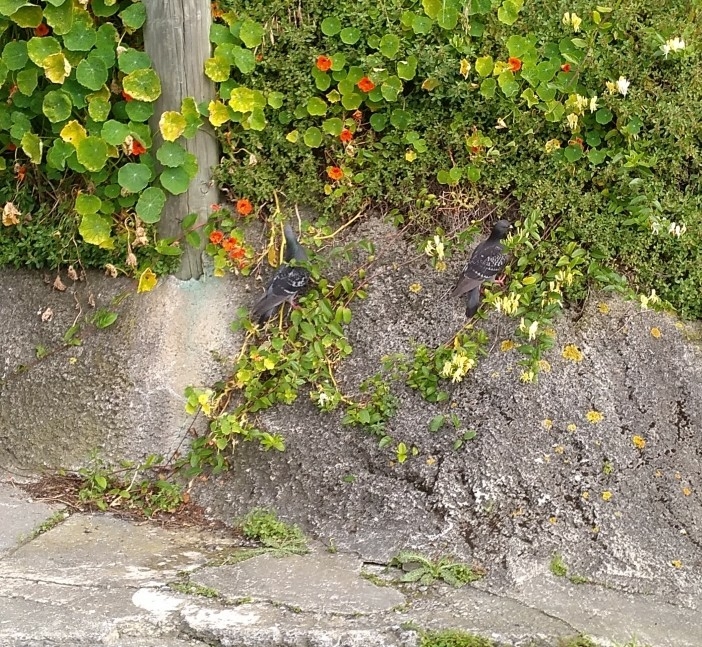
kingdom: Animalia
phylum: Chordata
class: Aves
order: Columbiformes
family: Columbidae
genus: Columba
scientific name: Columba livia
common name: Rock pigeon
